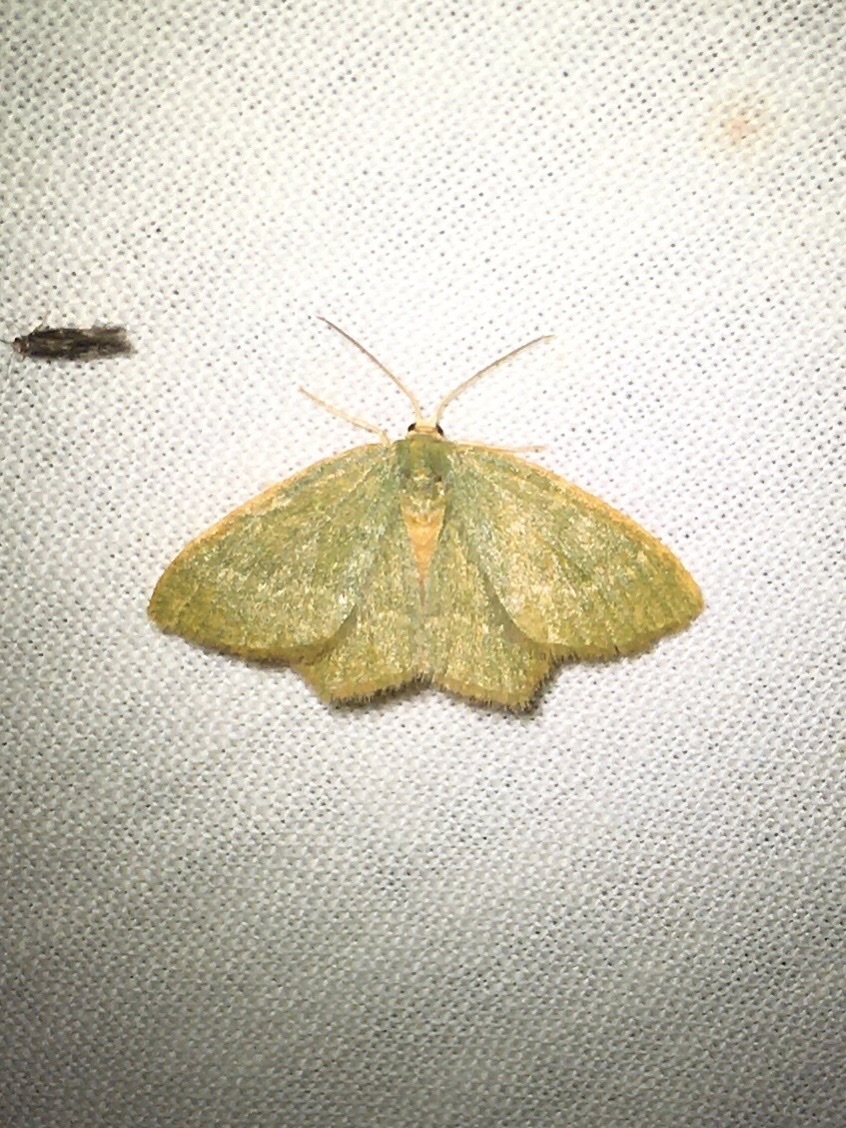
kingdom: Animalia
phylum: Arthropoda
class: Insecta
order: Lepidoptera
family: Geometridae
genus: Thalera
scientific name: Thalera pistasciaria
